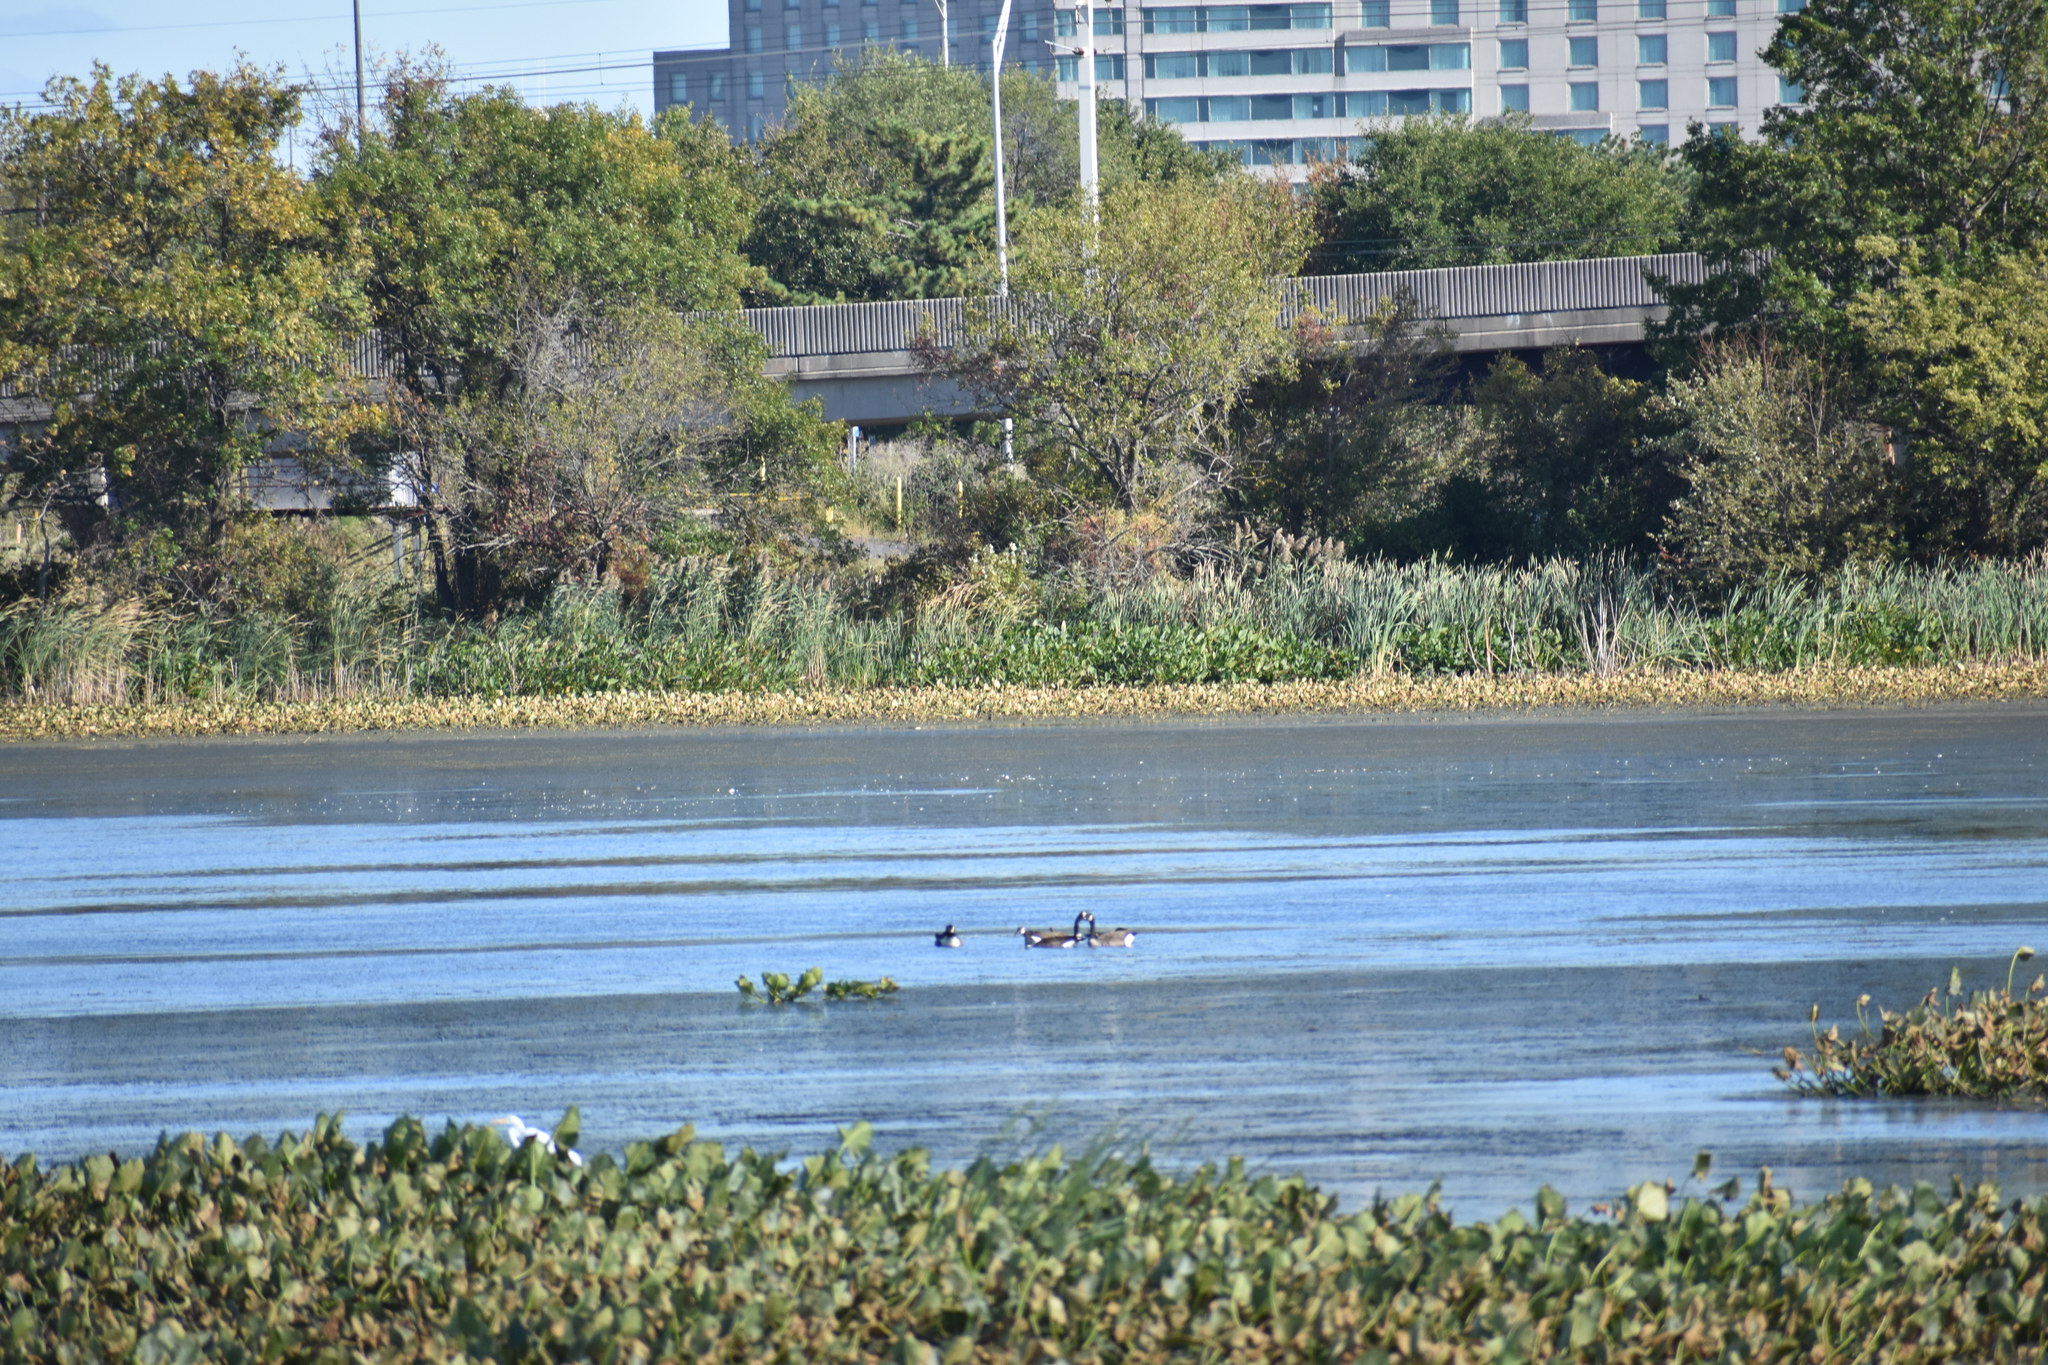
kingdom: Animalia
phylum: Chordata
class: Aves
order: Anseriformes
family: Anatidae
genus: Branta
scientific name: Branta canadensis
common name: Canada goose
